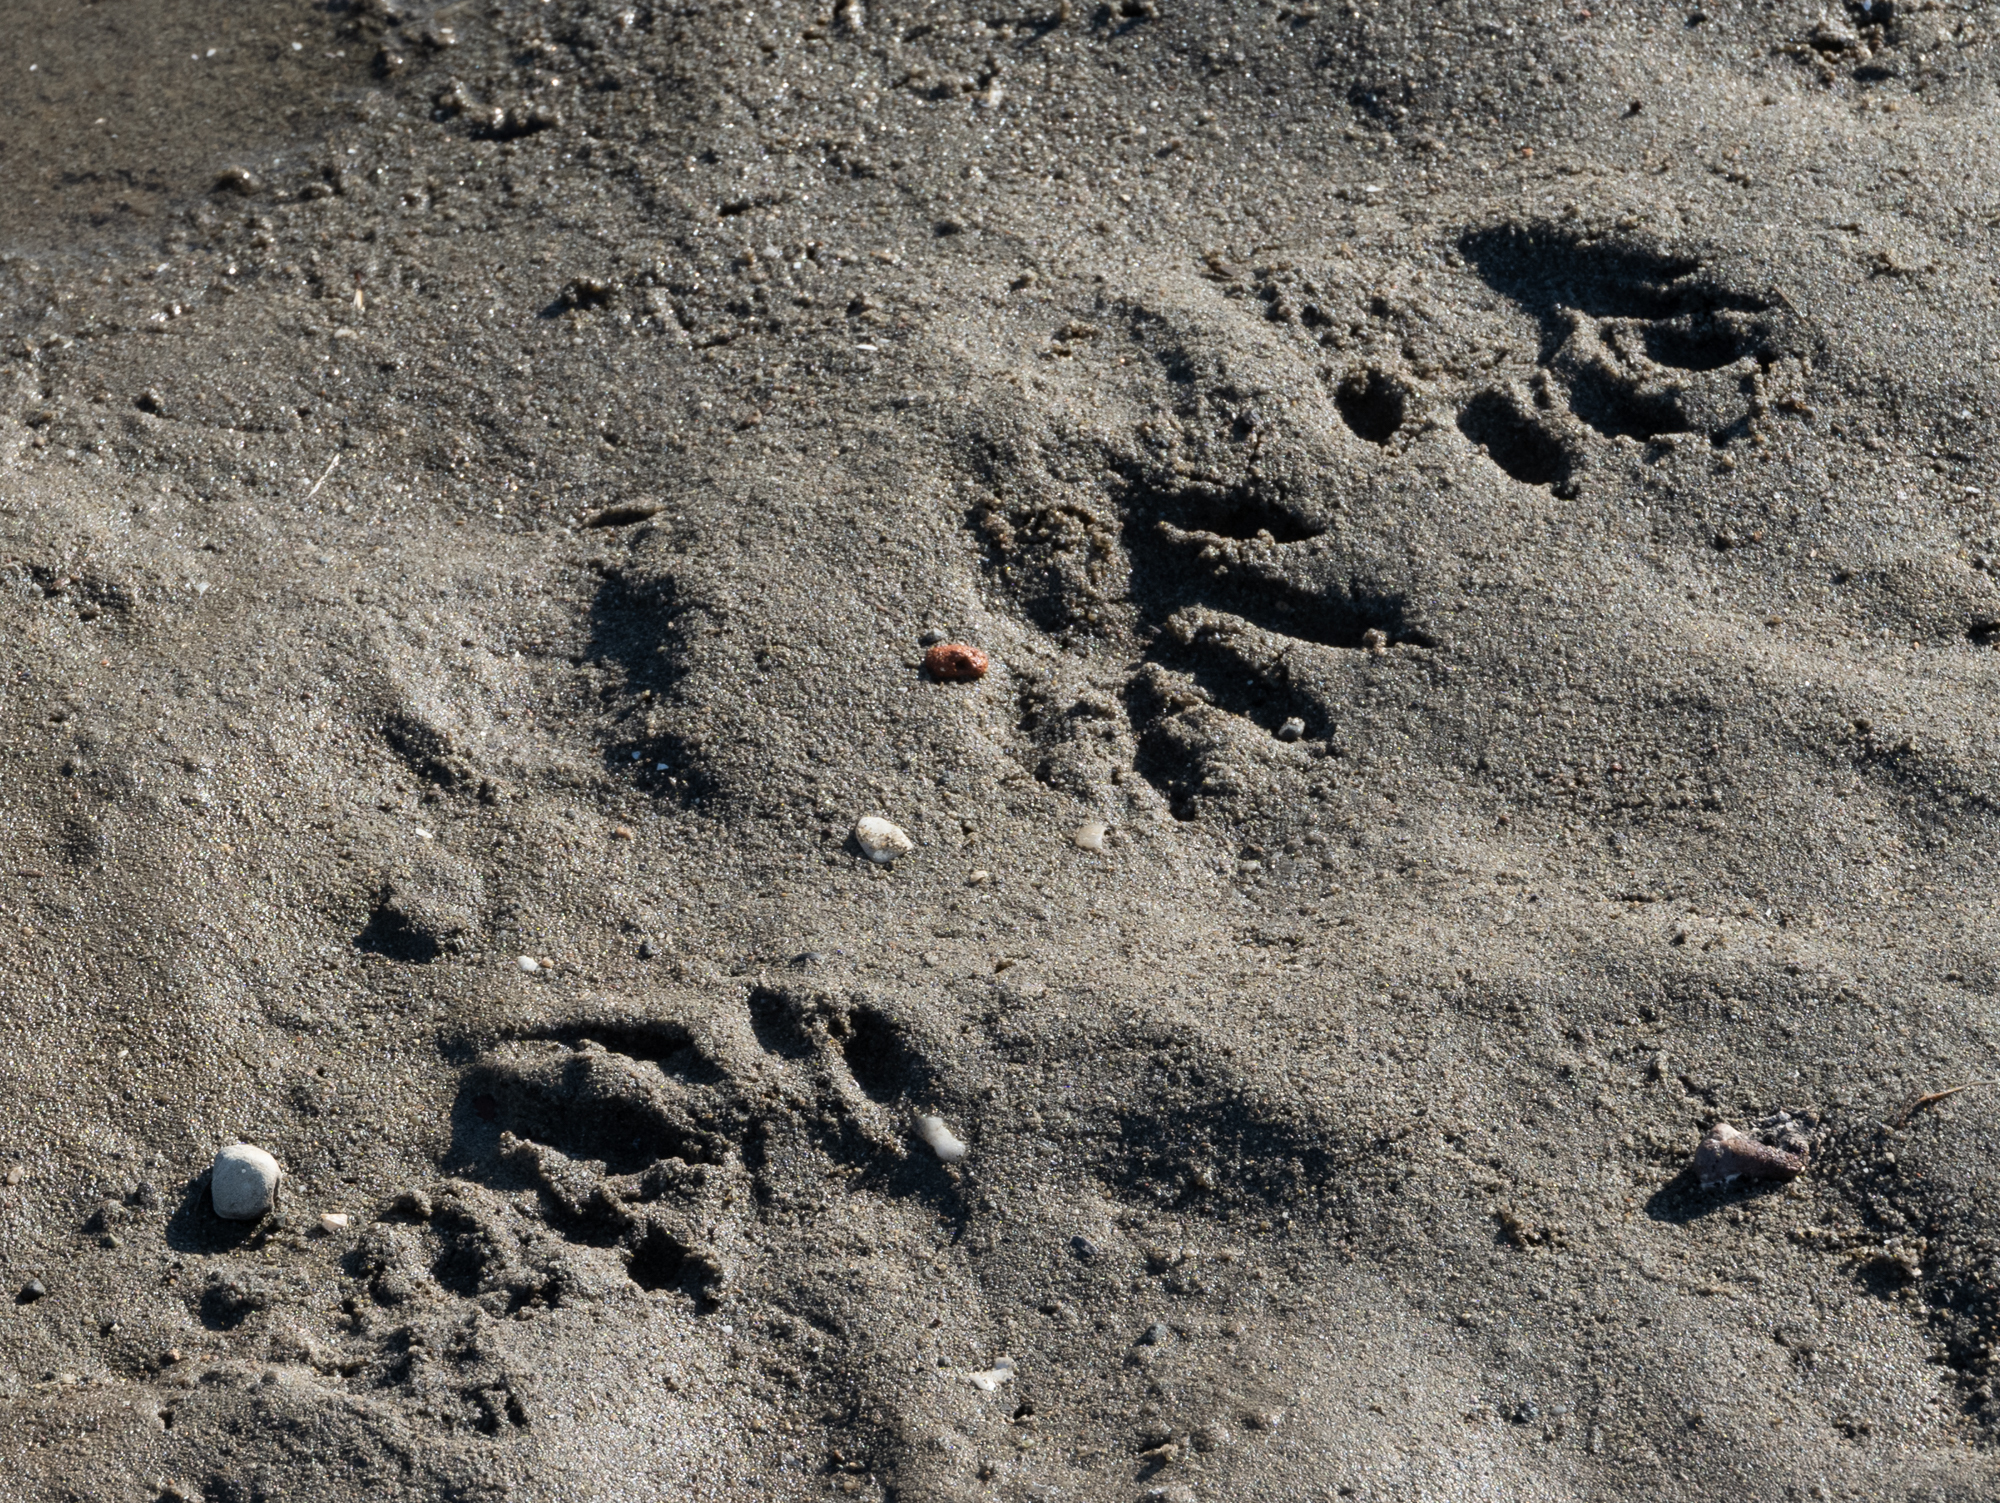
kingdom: Animalia
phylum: Chordata
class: Mammalia
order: Carnivora
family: Procyonidae
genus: Procyon
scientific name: Procyon lotor
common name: Raccoon
